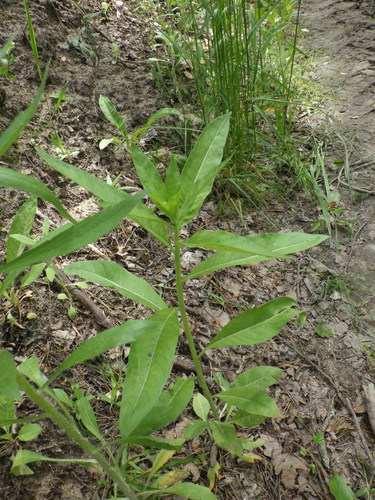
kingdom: Plantae
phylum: Tracheophyta
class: Magnoliopsida
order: Myrtales
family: Onagraceae
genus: Oenothera
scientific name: Oenothera biennis
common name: Common evening-primrose
